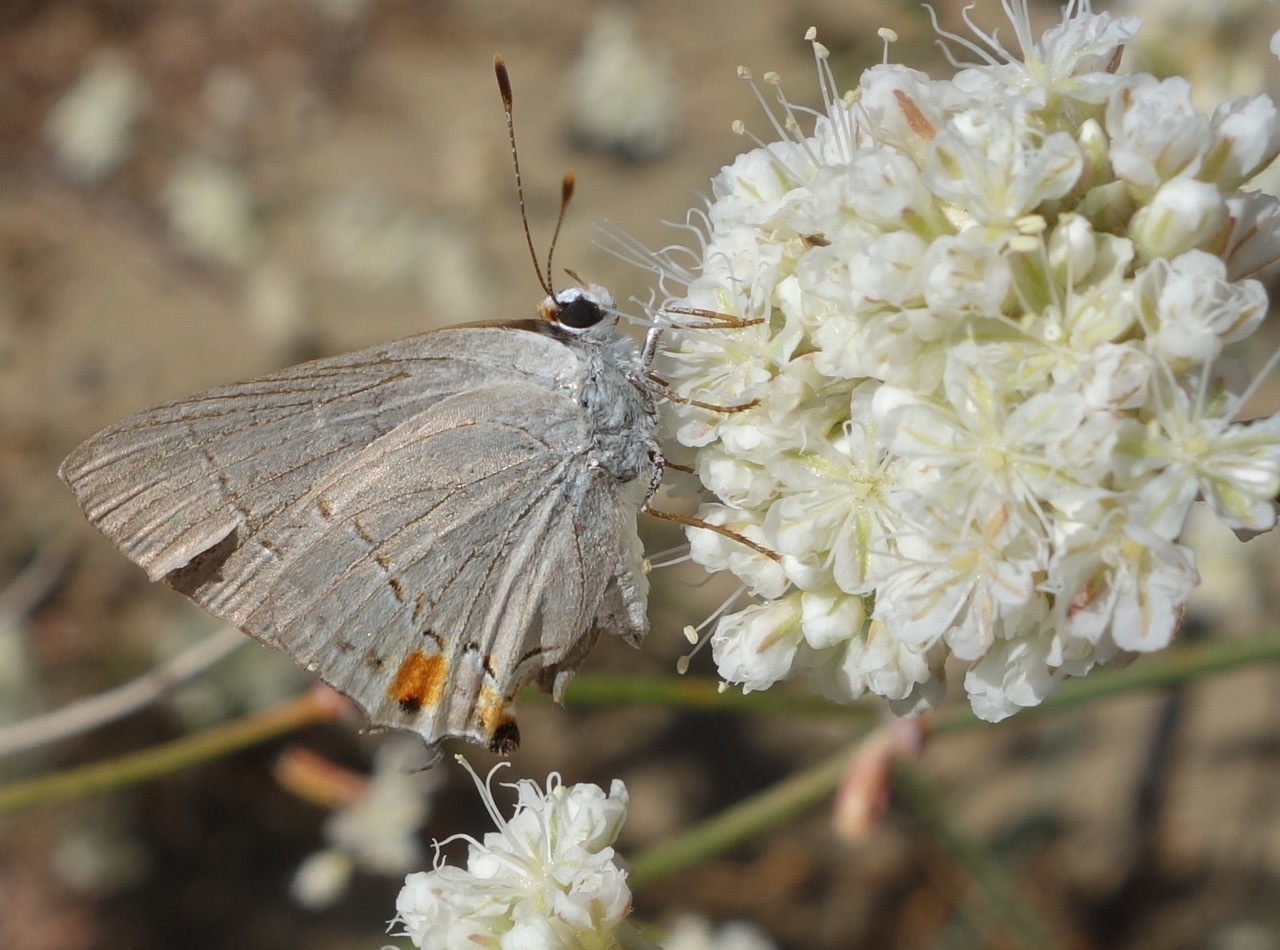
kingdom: Animalia
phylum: Arthropoda
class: Insecta
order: Lepidoptera
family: Lycaenidae
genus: Strymon
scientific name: Strymon melinus
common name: Gray hairstreak
